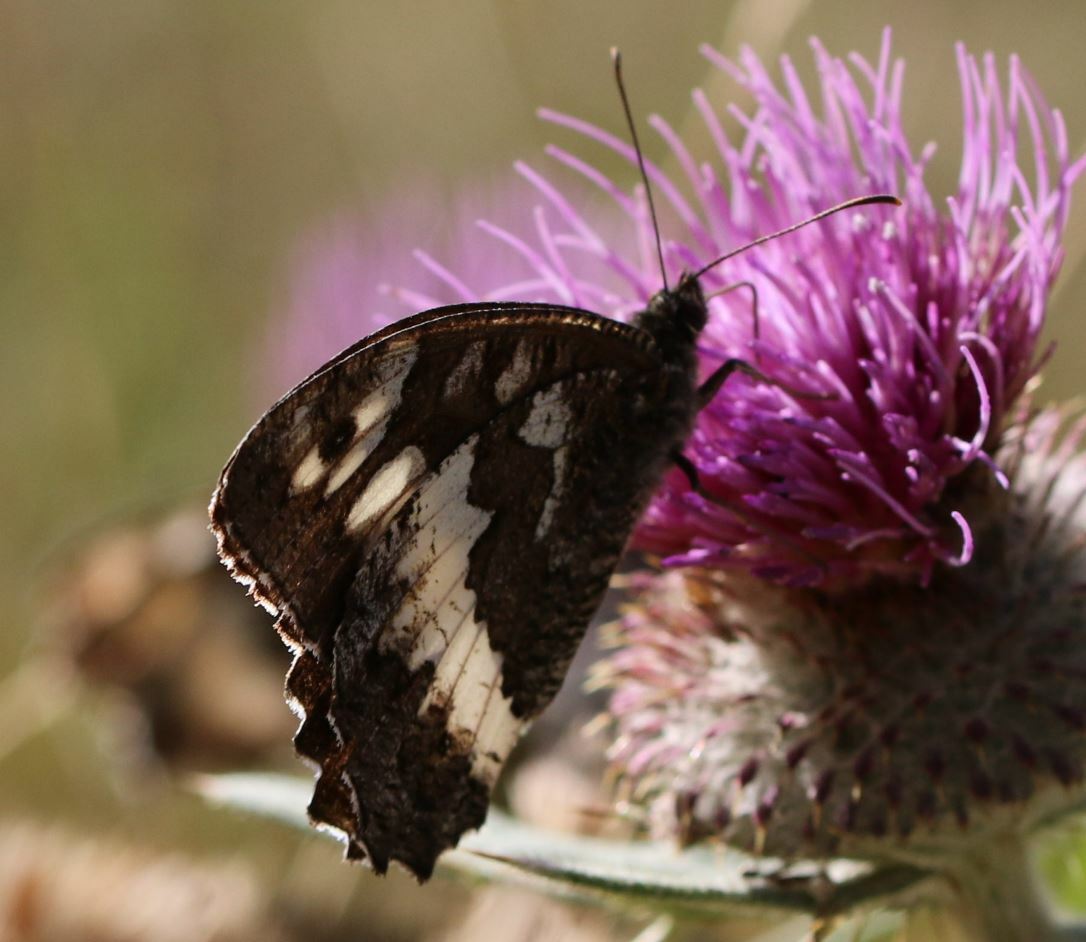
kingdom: Animalia
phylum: Arthropoda
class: Insecta
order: Lepidoptera
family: Lycaenidae
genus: Loweia
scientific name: Loweia tityrus
